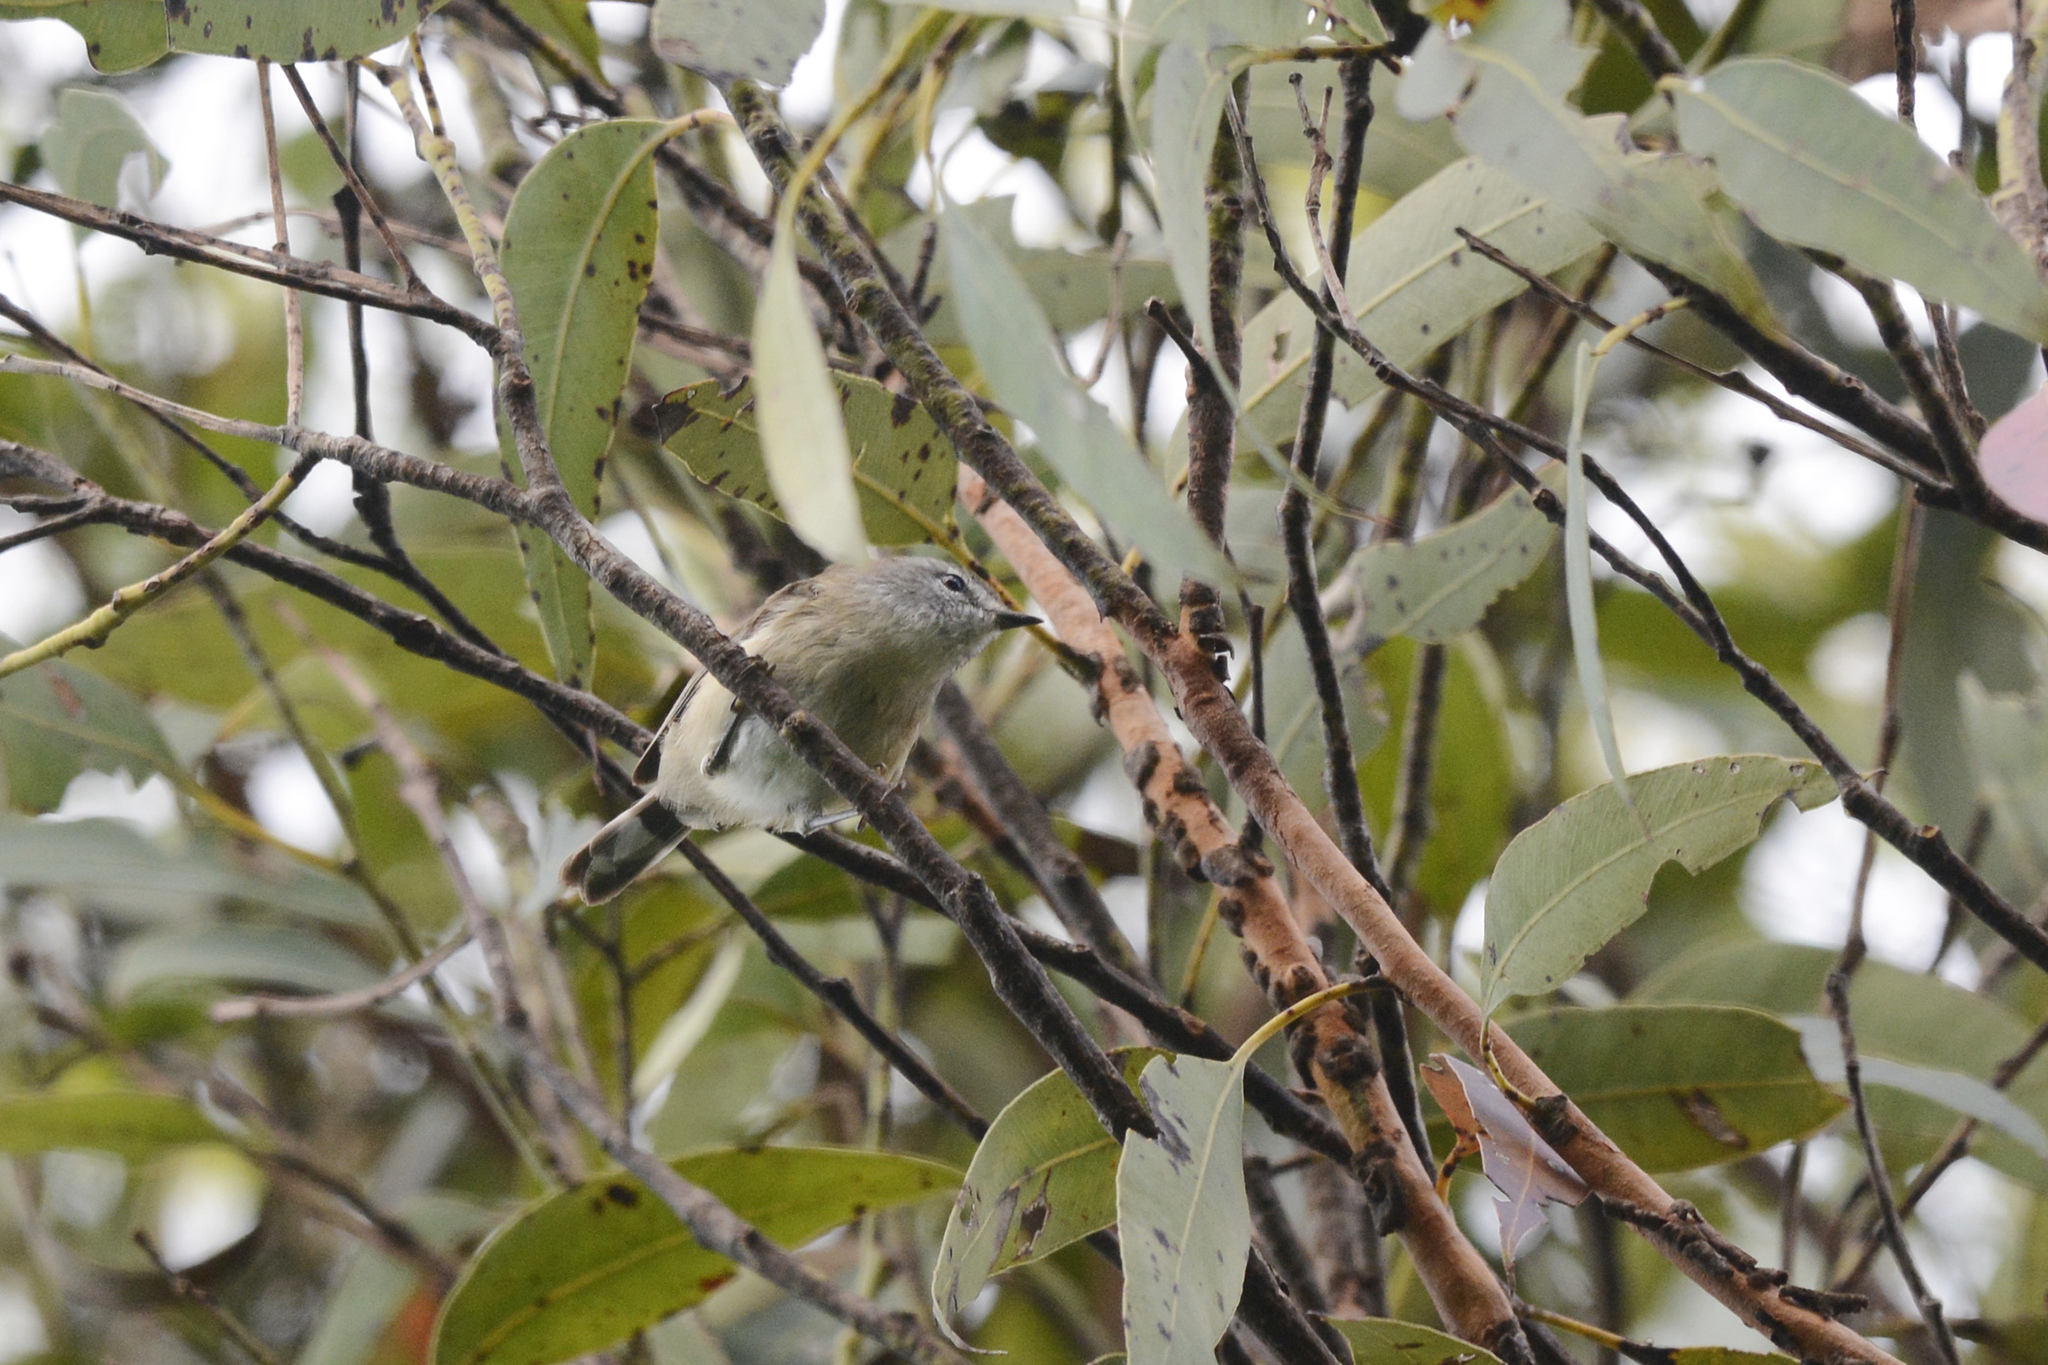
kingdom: Animalia
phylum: Chordata
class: Aves
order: Passeriformes
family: Acanthizidae
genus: Gerygone
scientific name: Gerygone mouki
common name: Brown gerygone
